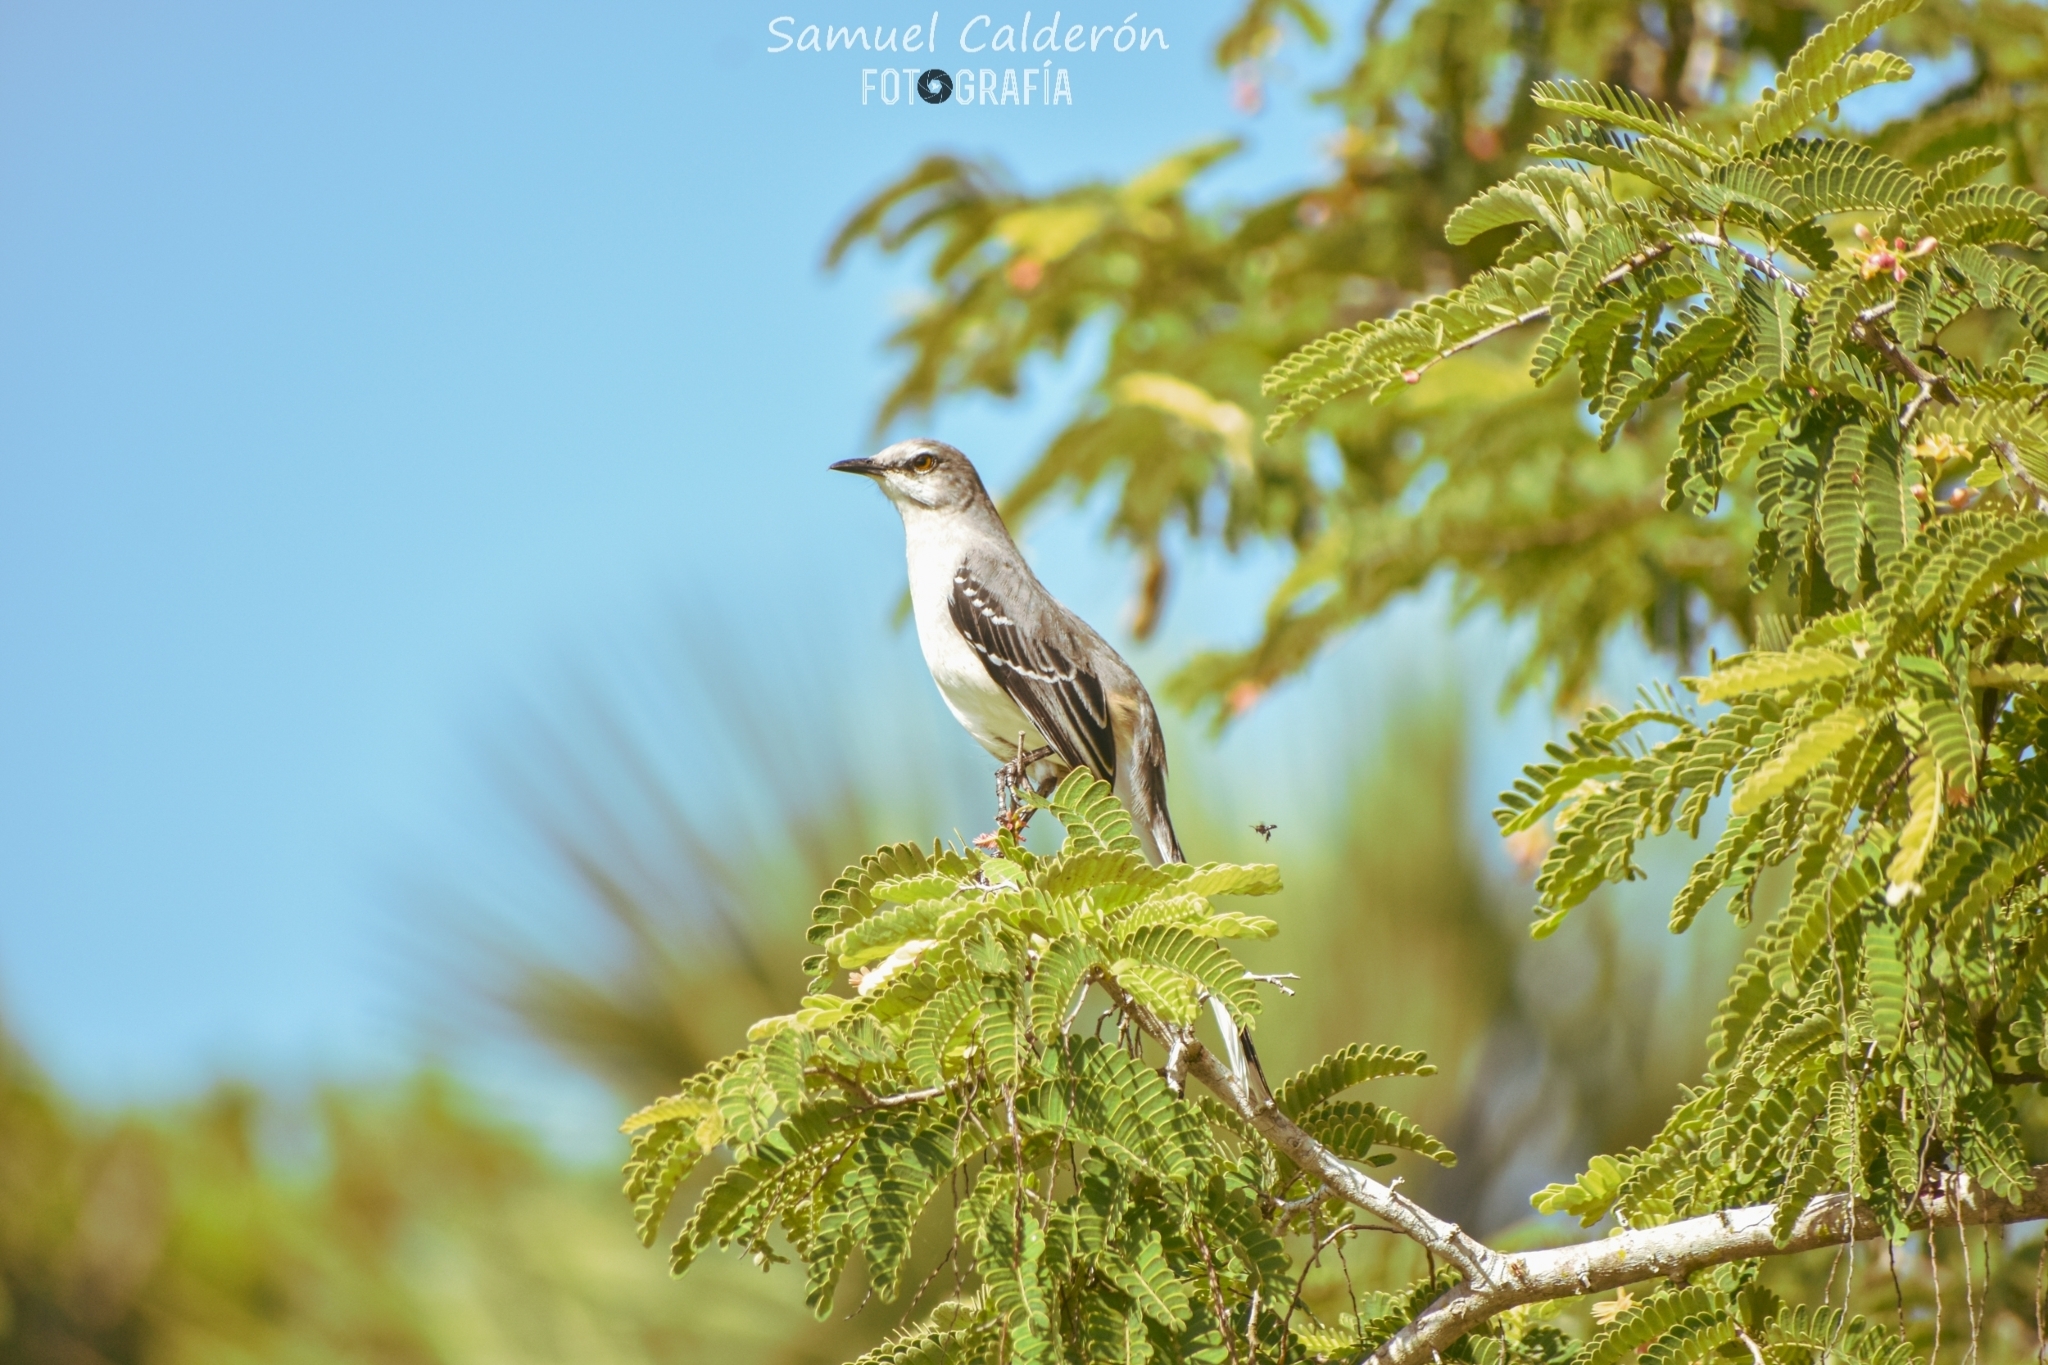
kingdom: Animalia
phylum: Chordata
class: Aves
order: Passeriformes
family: Mimidae
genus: Mimus
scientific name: Mimus gilvus
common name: Tropical mockingbird
